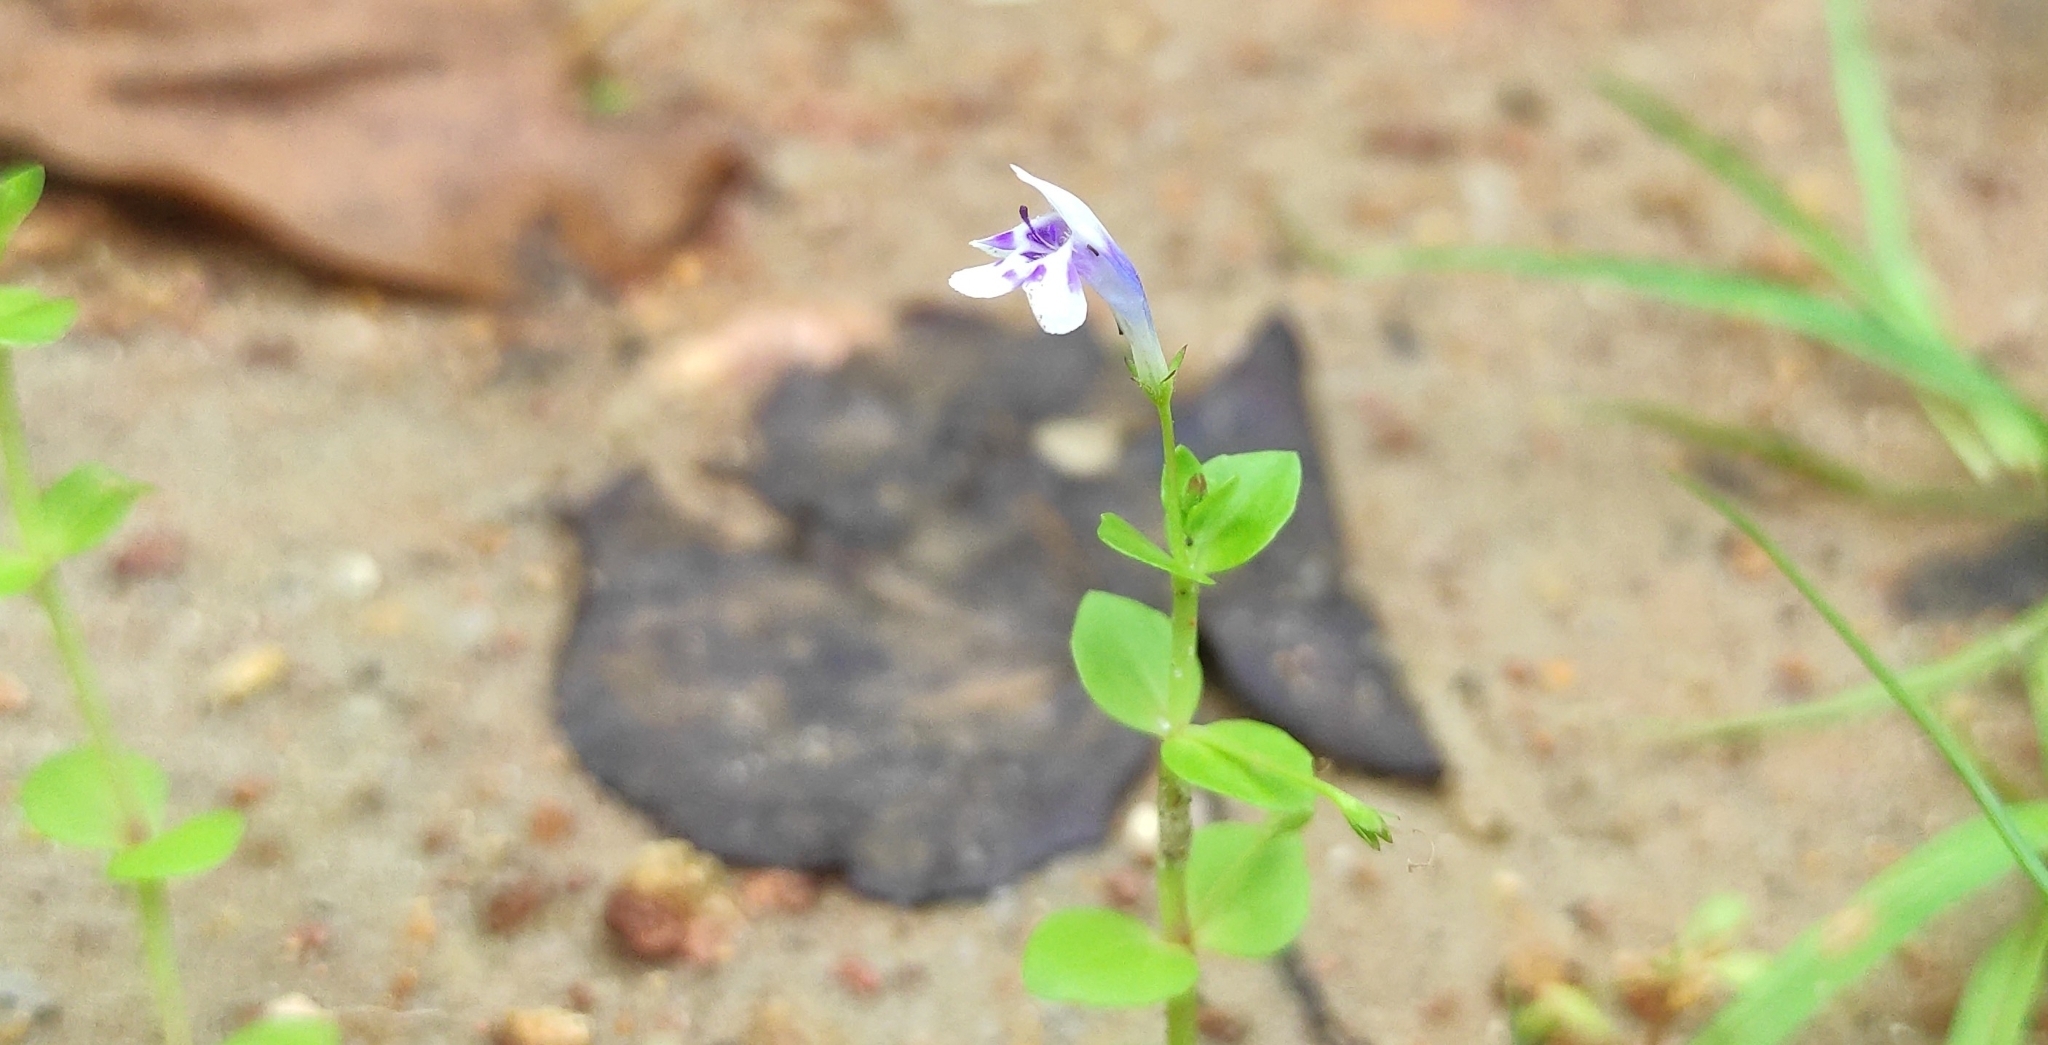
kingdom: Plantae
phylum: Tracheophyta
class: Magnoliopsida
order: Lamiales
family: Linderniaceae
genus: Lindernia
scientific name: Lindernia rotundifolia
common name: Baby’s tears
